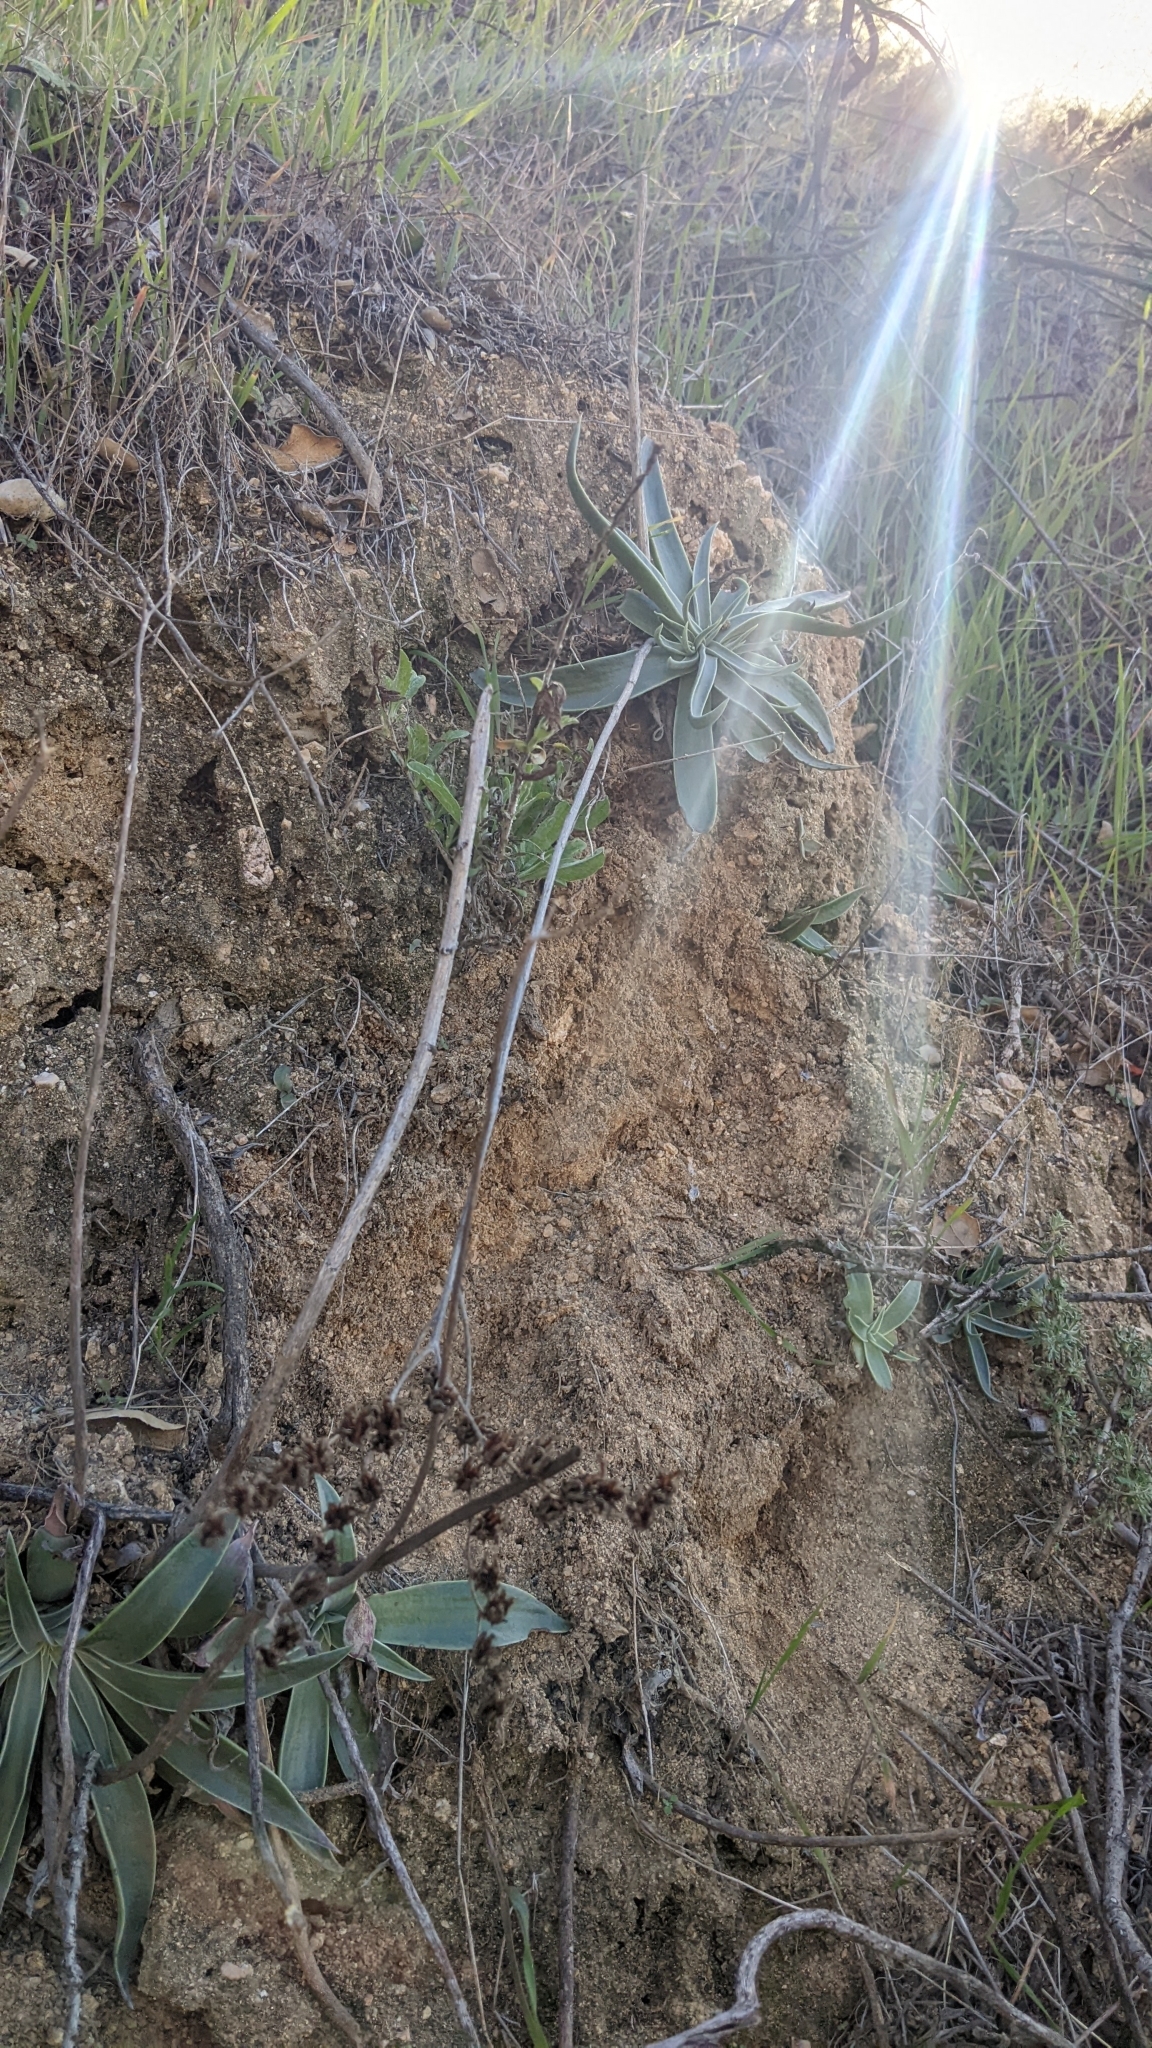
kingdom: Plantae
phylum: Tracheophyta
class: Magnoliopsida
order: Saxifragales
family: Crassulaceae
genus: Dudleya
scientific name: Dudleya lanceolata
